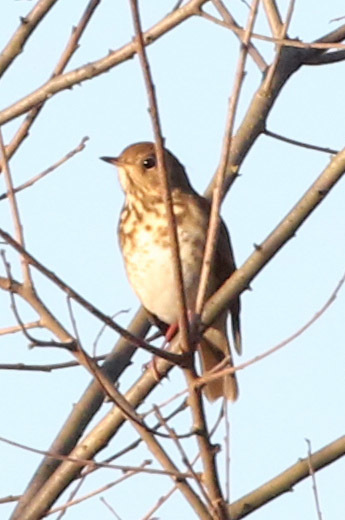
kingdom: Animalia
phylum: Chordata
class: Aves
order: Passeriformes
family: Turdidae
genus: Catharus
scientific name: Catharus guttatus
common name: Hermit thrush
